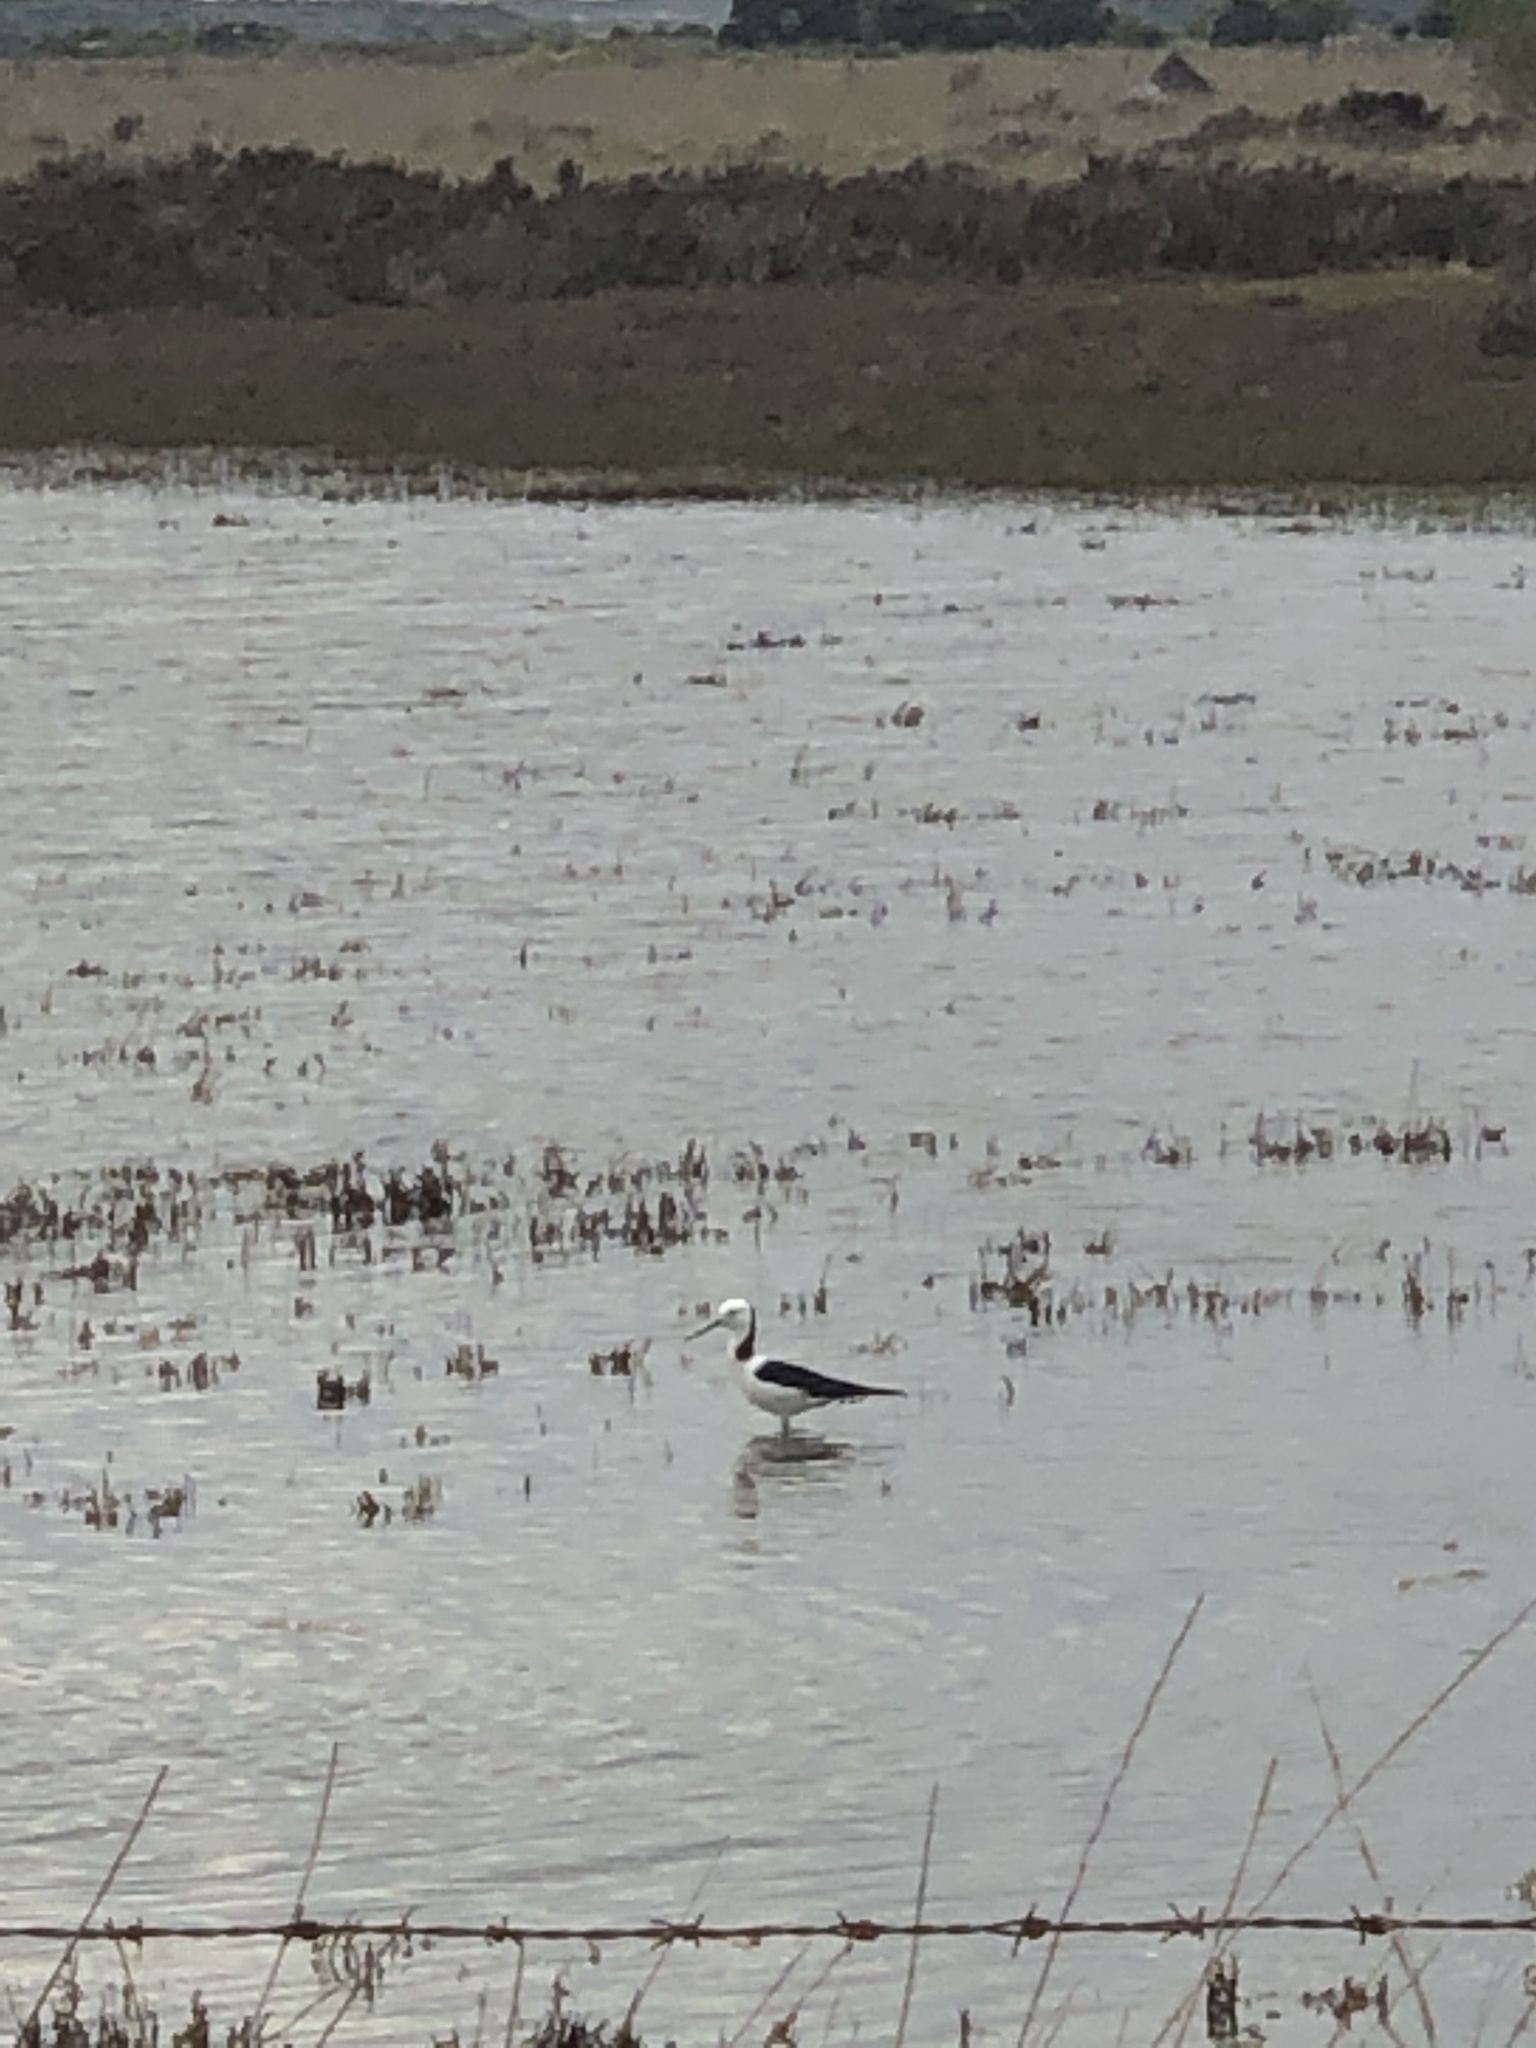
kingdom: Animalia
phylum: Chordata
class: Aves
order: Charadriiformes
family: Recurvirostridae
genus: Himantopus
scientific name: Himantopus leucocephalus
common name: White-headed stilt
